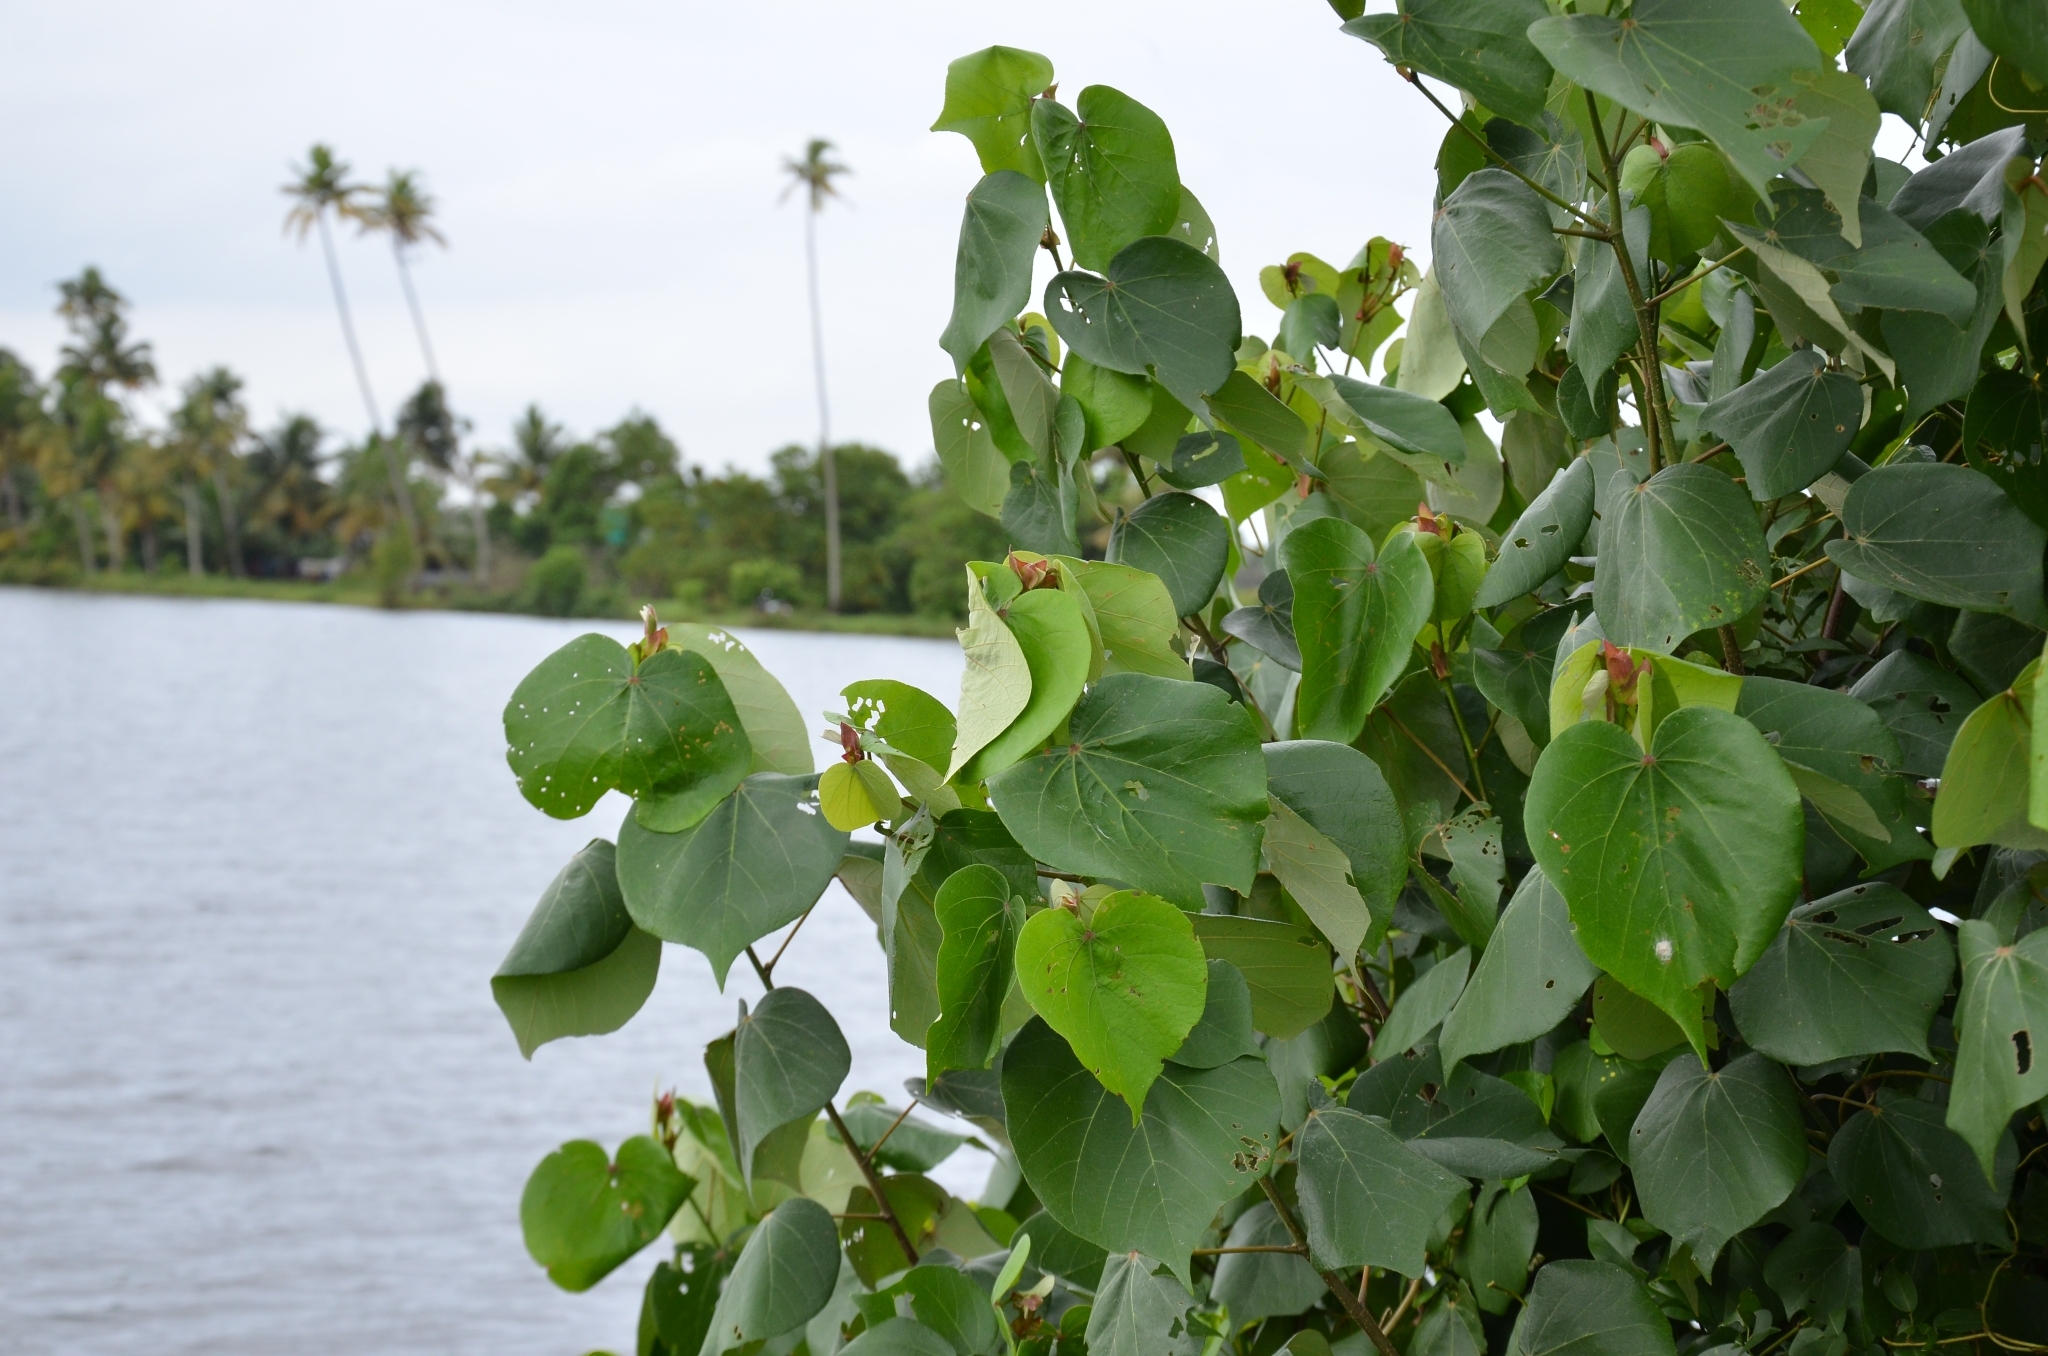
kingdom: Plantae
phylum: Tracheophyta
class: Magnoliopsida
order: Malvales
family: Malvaceae
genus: Talipariti
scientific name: Talipariti tiliaceum
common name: Sea hibiscus
